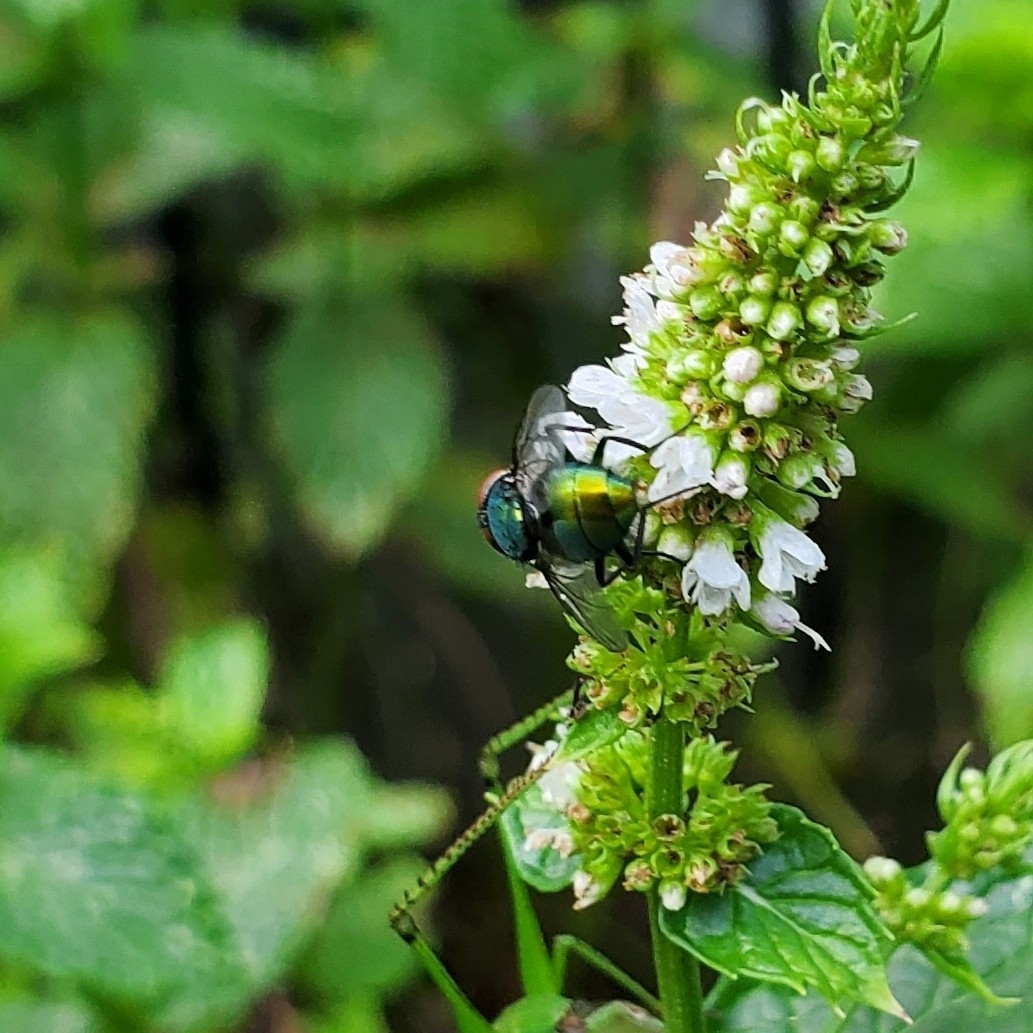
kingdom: Animalia
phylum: Arthropoda
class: Insecta
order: Diptera
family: Calliphoridae
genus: Lucilia
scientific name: Lucilia sericata
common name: Blow fly
